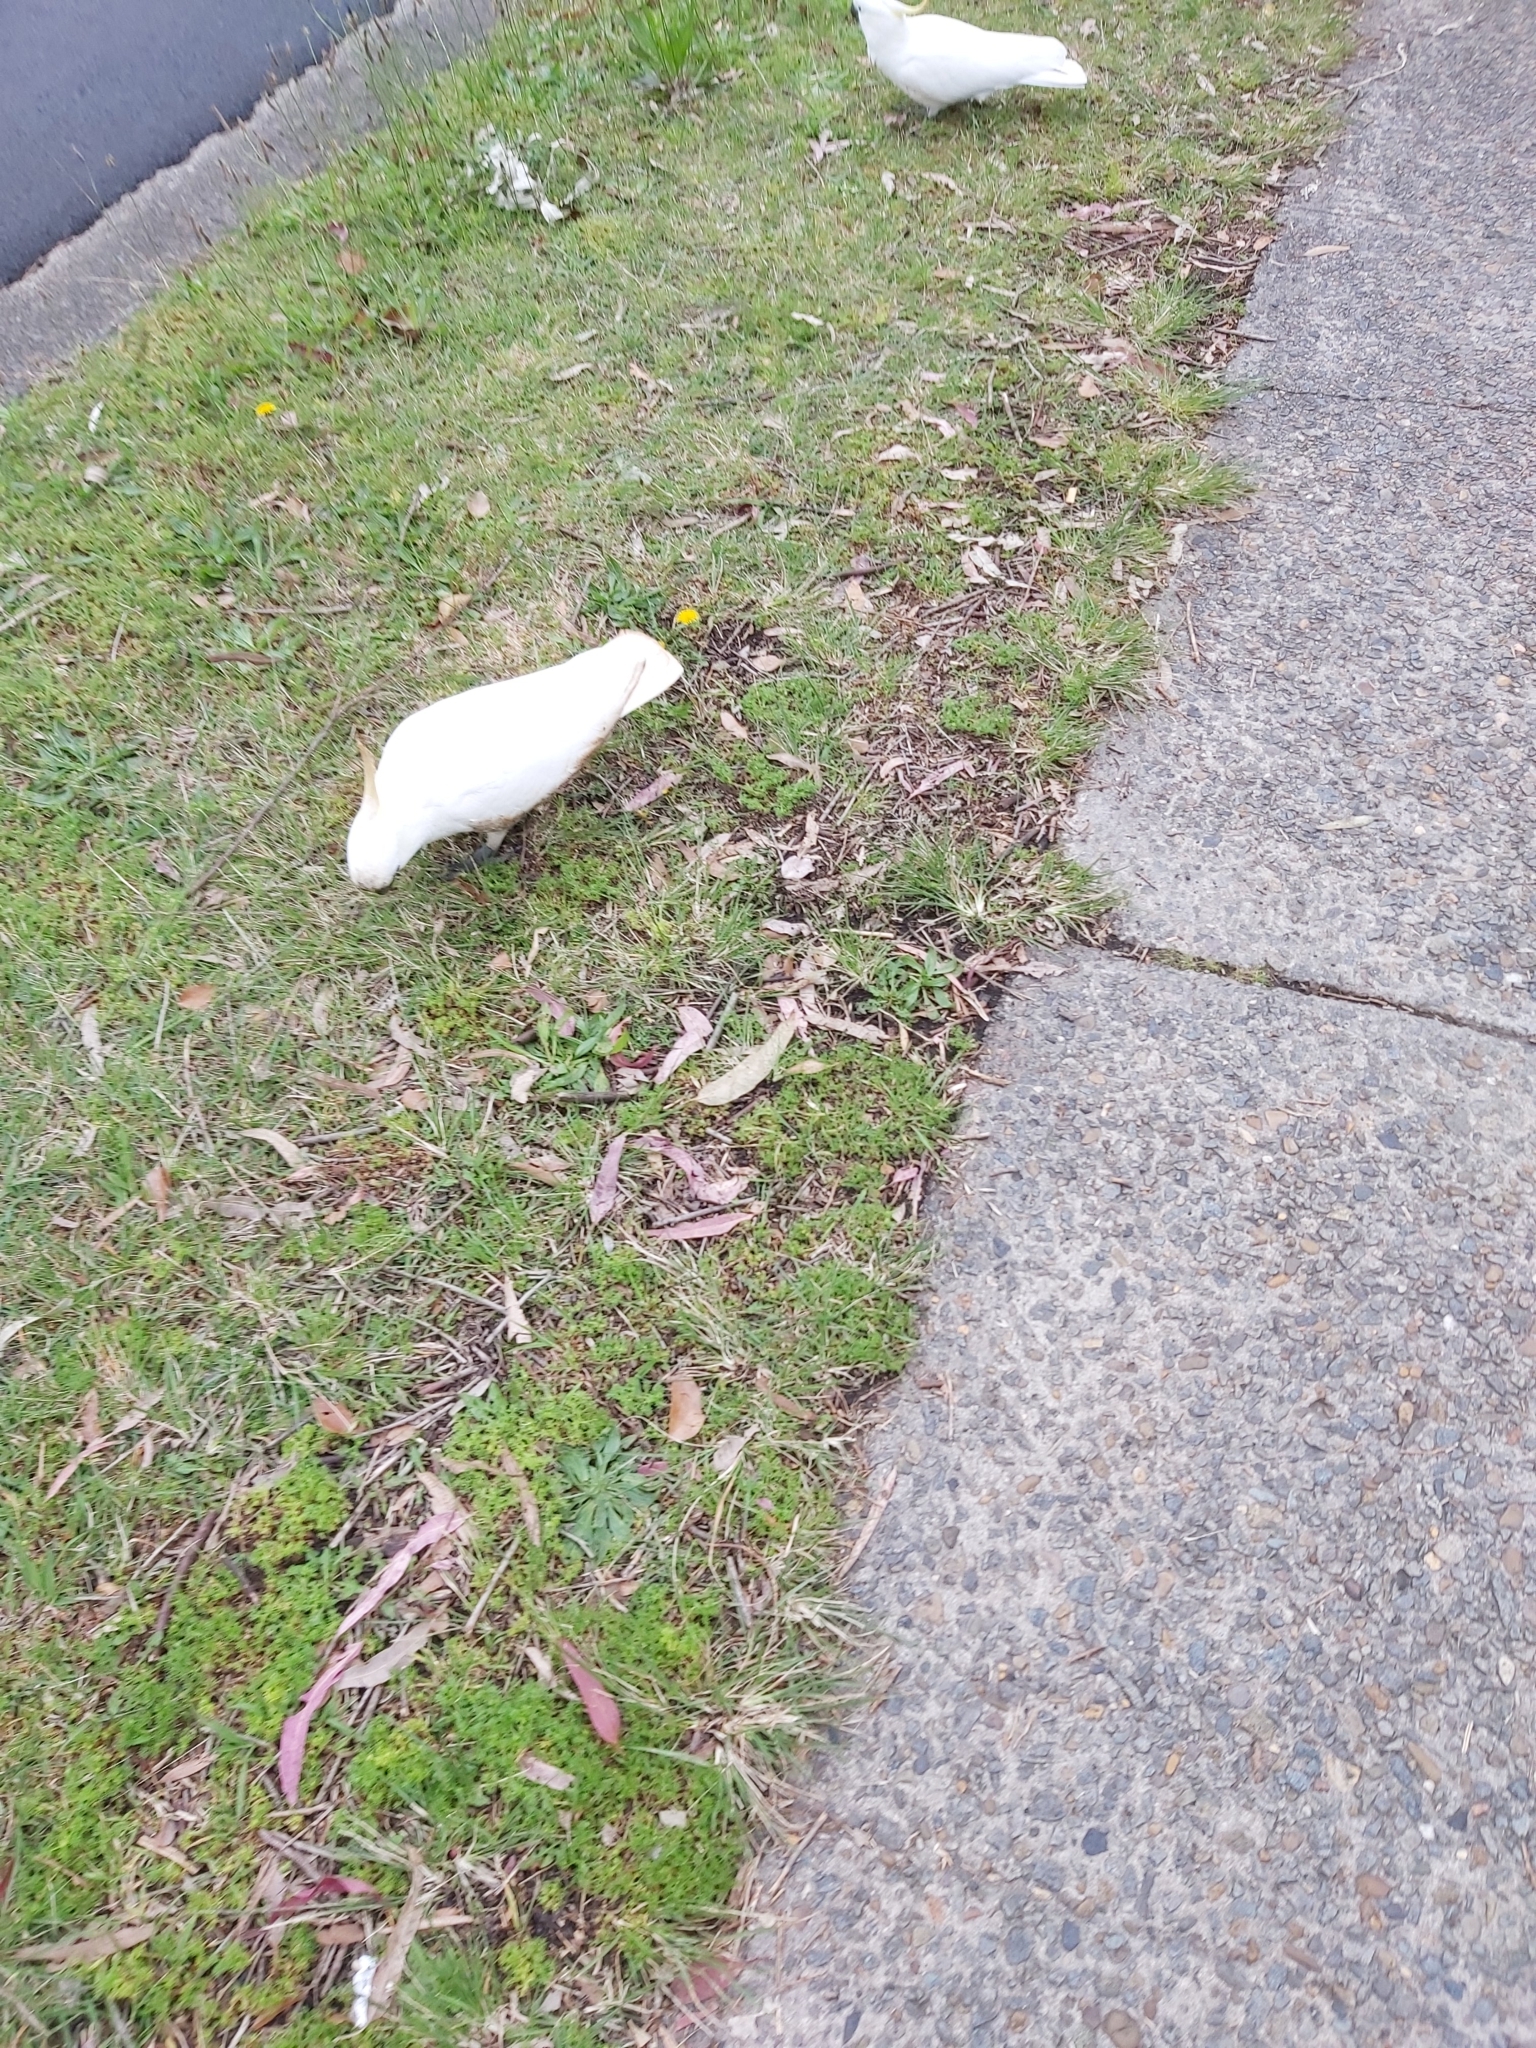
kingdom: Animalia
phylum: Chordata
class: Aves
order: Psittaciformes
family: Psittacidae
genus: Cacatua
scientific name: Cacatua galerita
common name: Sulphur-crested cockatoo
